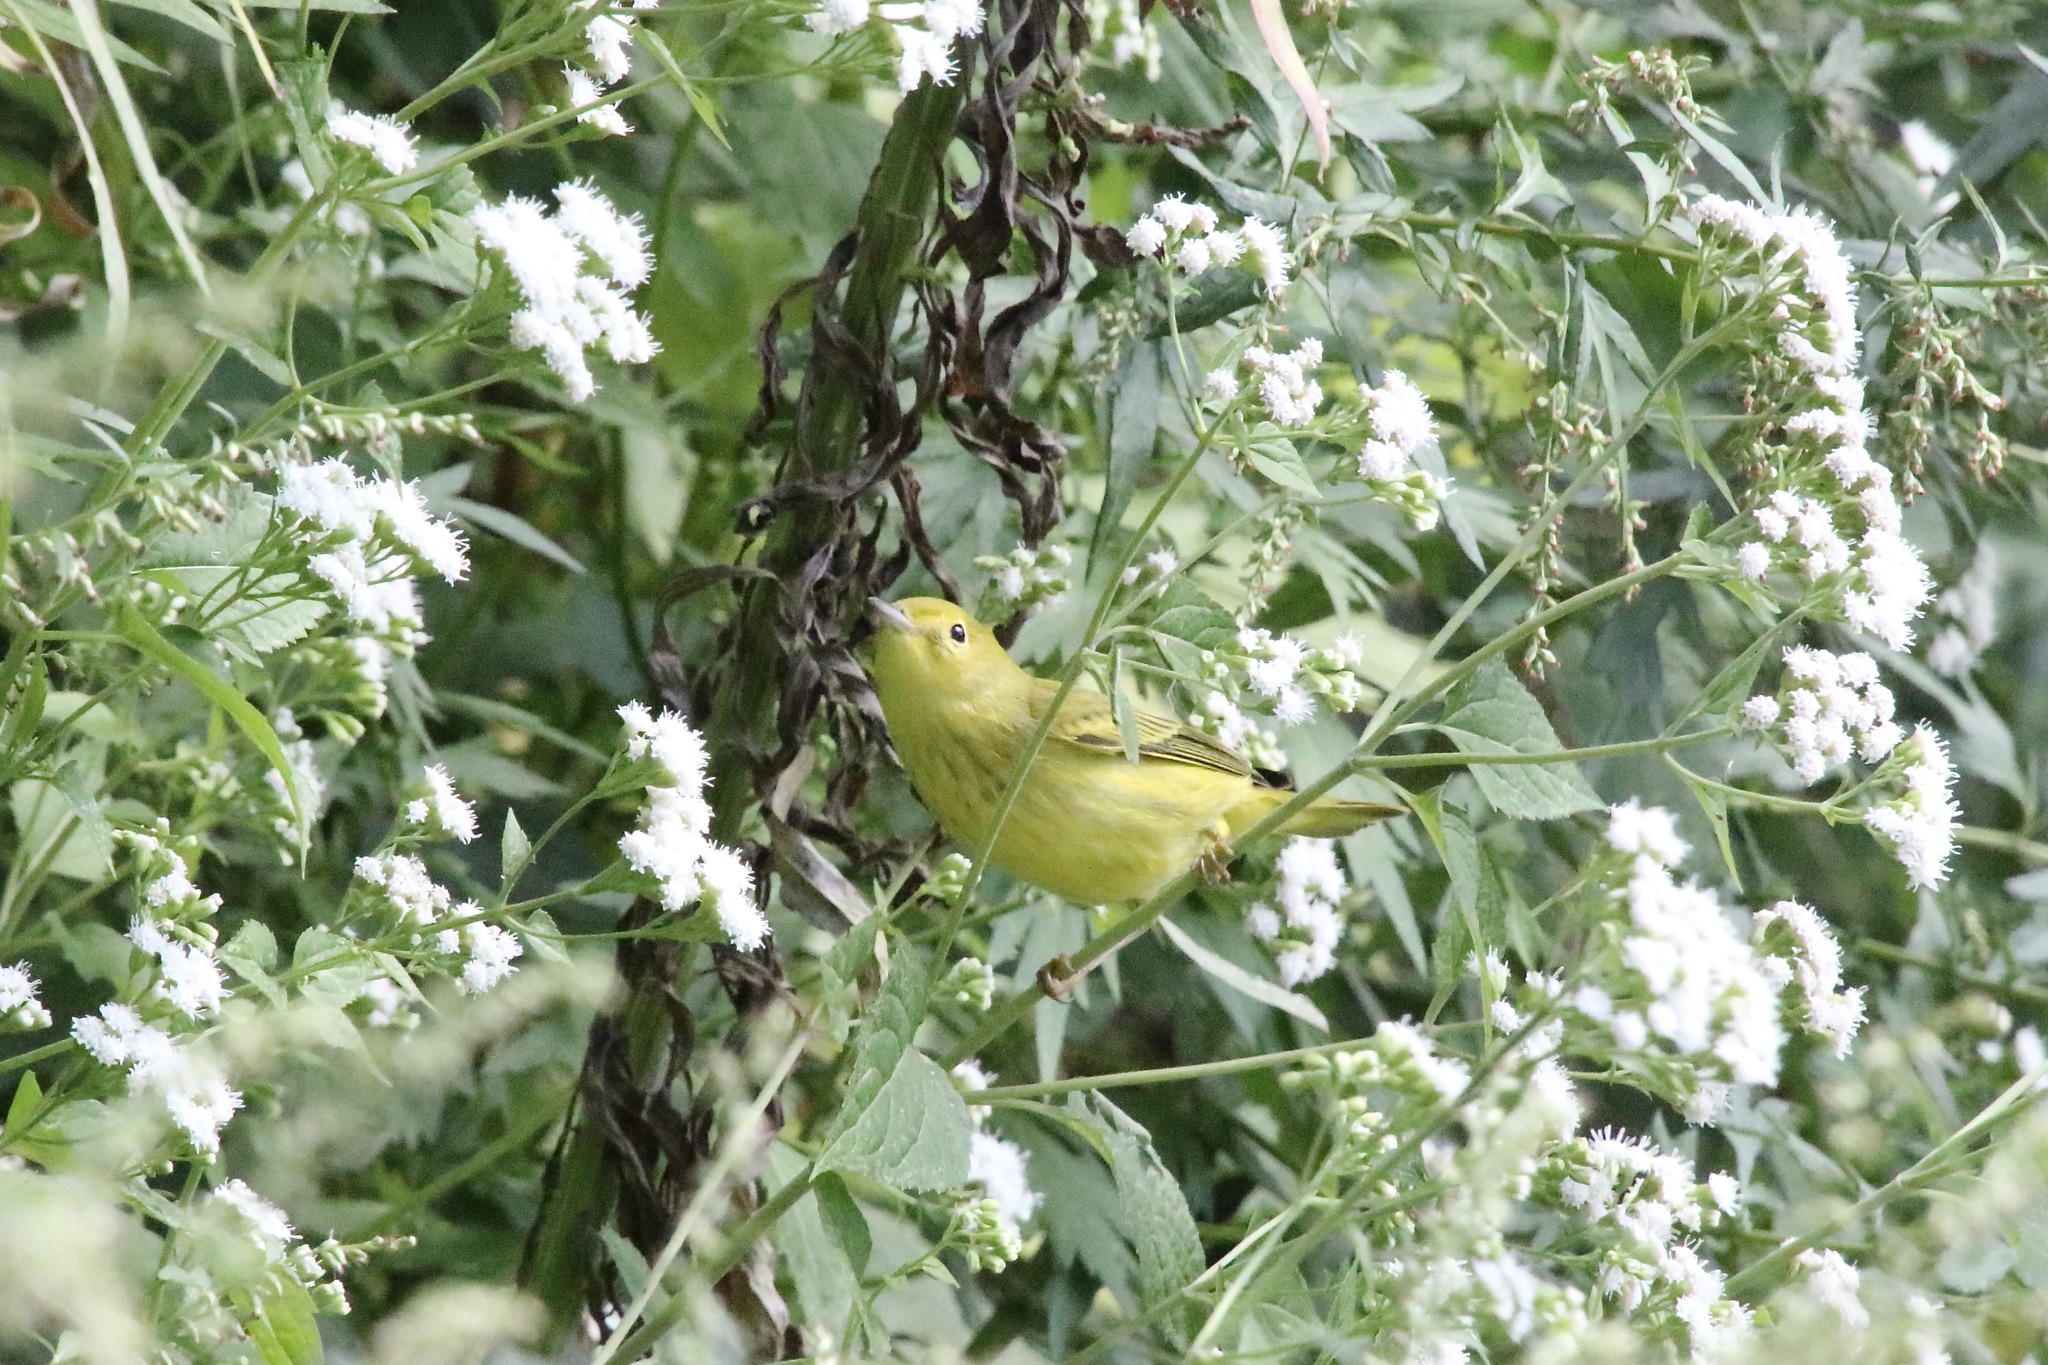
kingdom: Animalia
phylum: Chordata
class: Aves
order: Passeriformes
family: Parulidae
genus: Setophaga
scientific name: Setophaga petechia
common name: Yellow warbler
